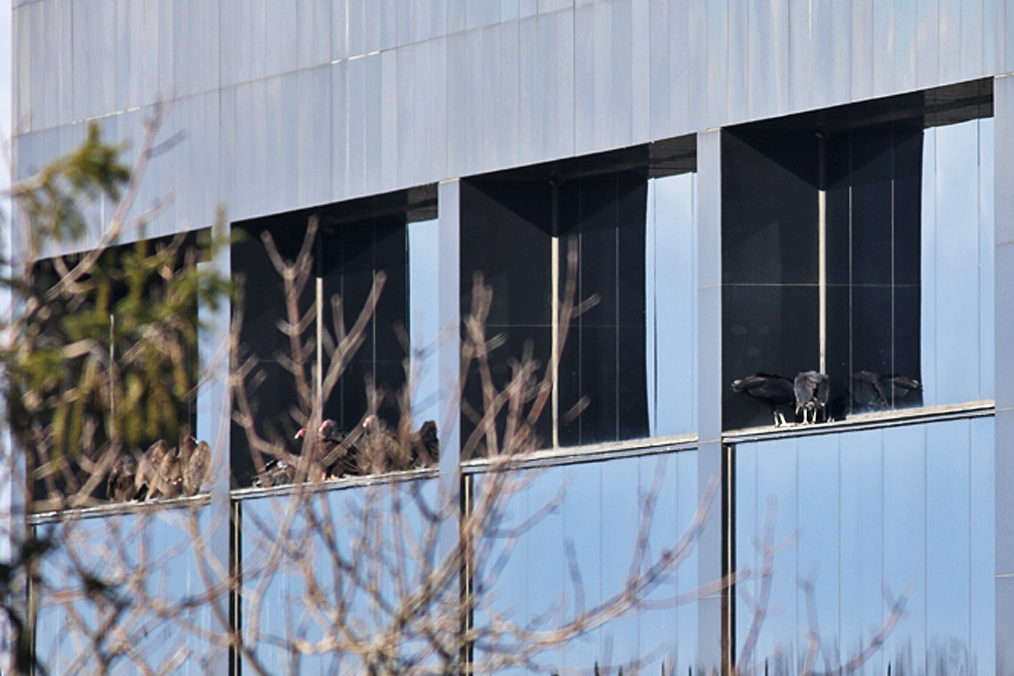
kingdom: Animalia
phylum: Chordata
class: Aves
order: Accipitriformes
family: Cathartidae
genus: Coragyps
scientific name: Coragyps atratus
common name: Black vulture
